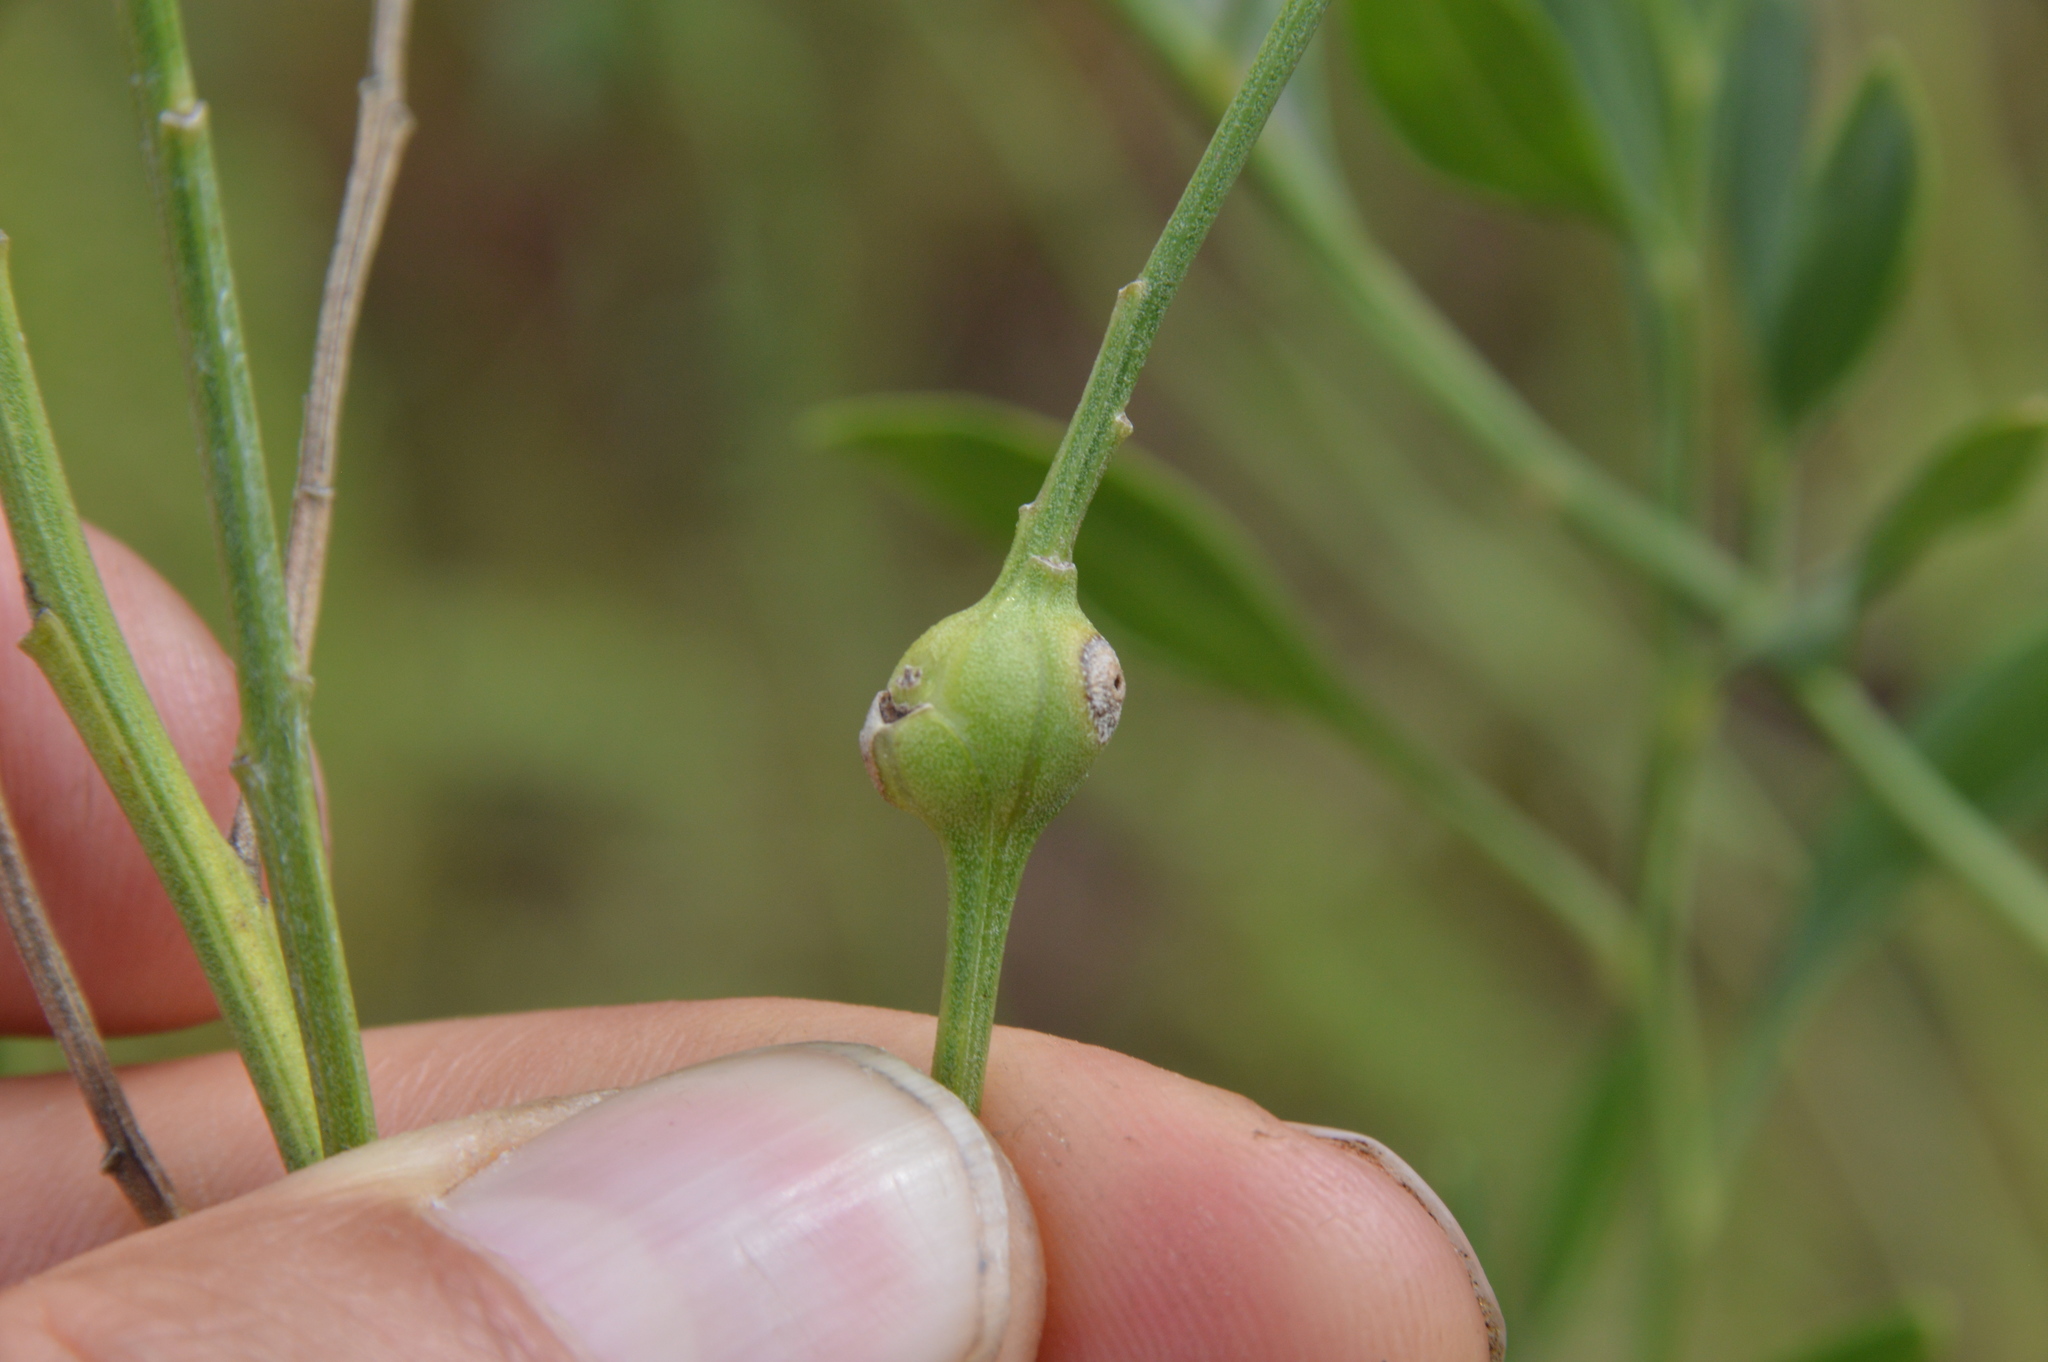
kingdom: Animalia
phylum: Arthropoda
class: Insecta
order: Diptera
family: Cecidomyiidae
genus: Neolasioptera
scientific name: Neolasioptera lathami
